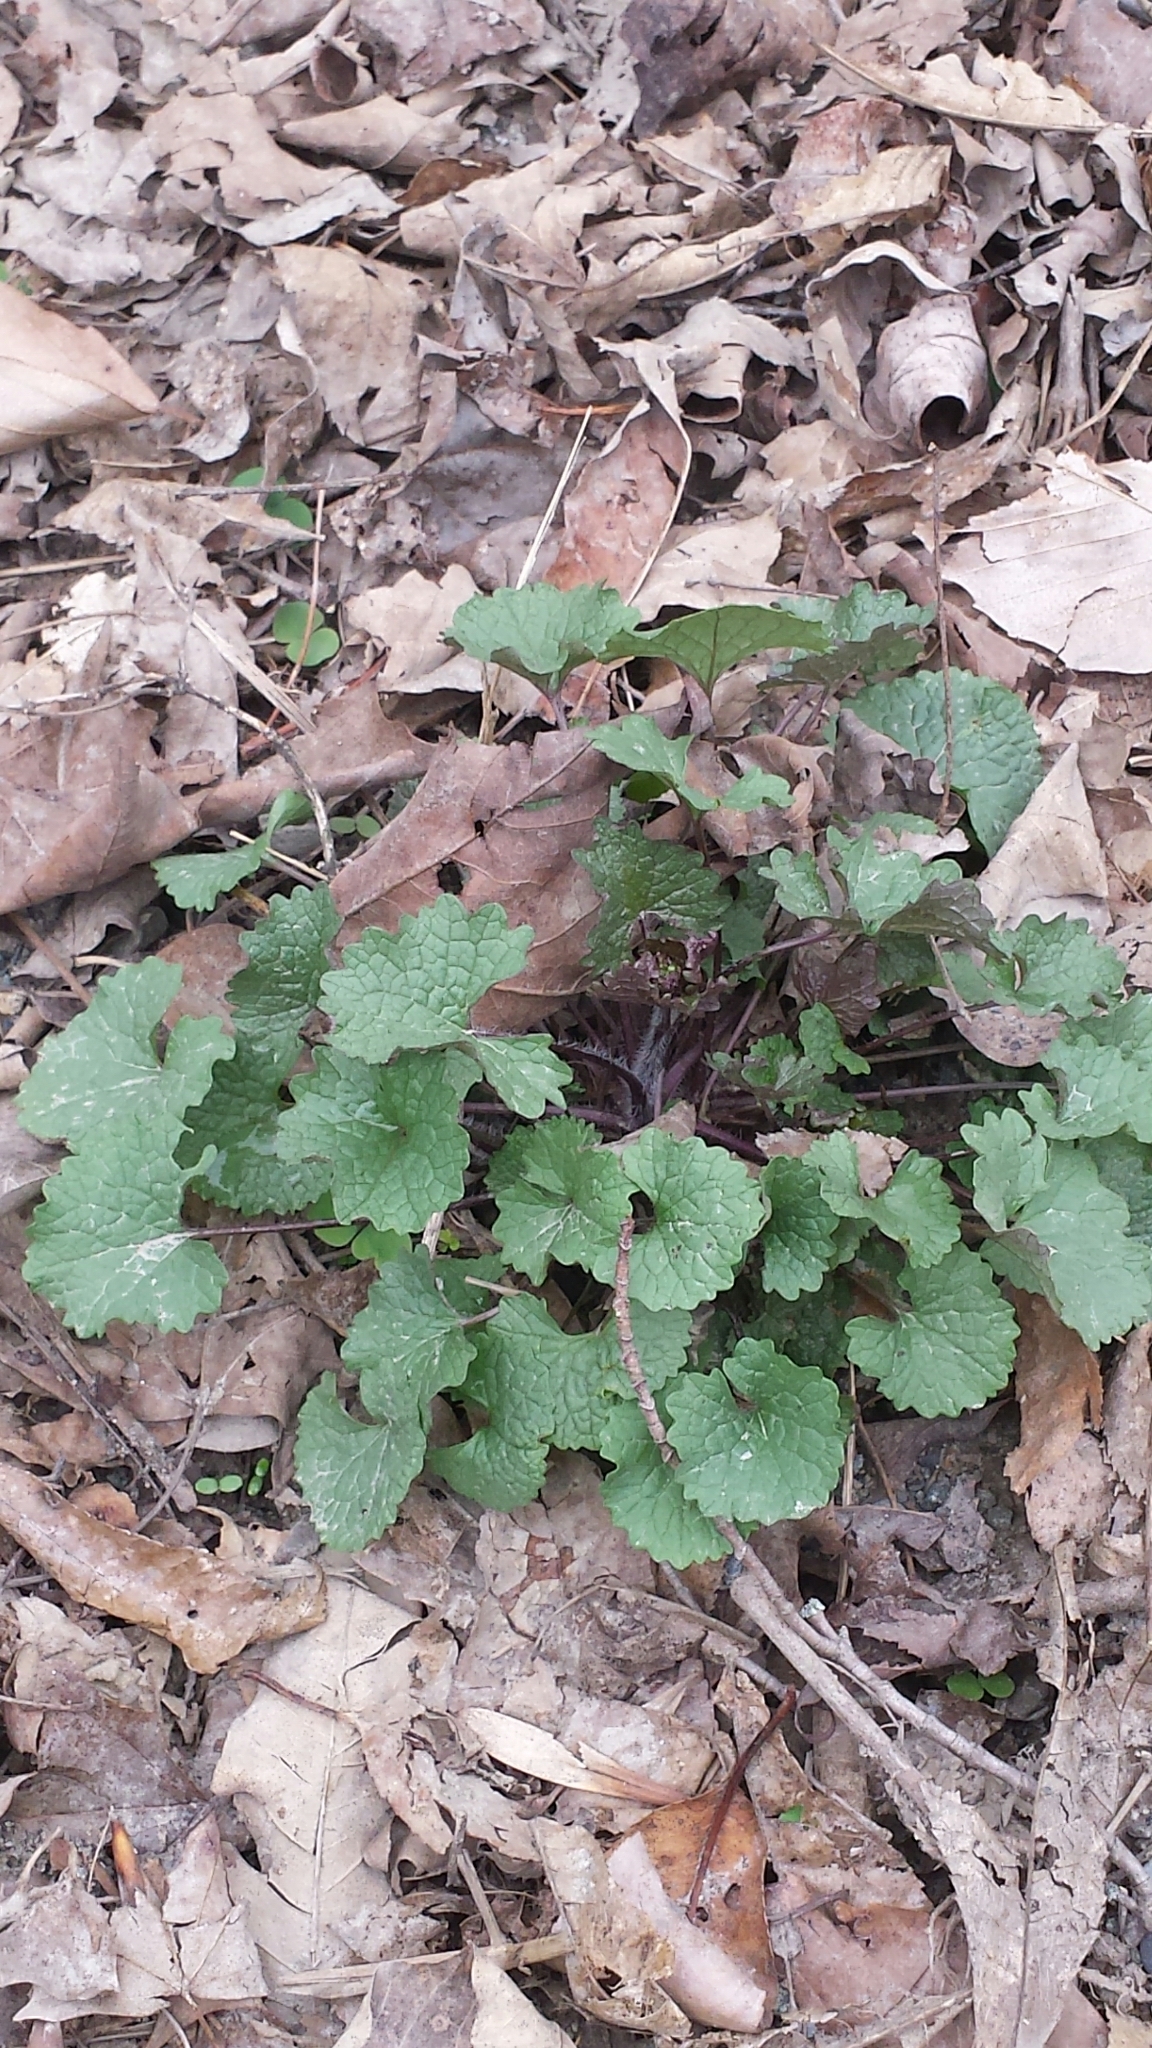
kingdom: Plantae
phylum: Tracheophyta
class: Magnoliopsida
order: Brassicales
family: Brassicaceae
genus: Alliaria
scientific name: Alliaria petiolata
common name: Garlic mustard
